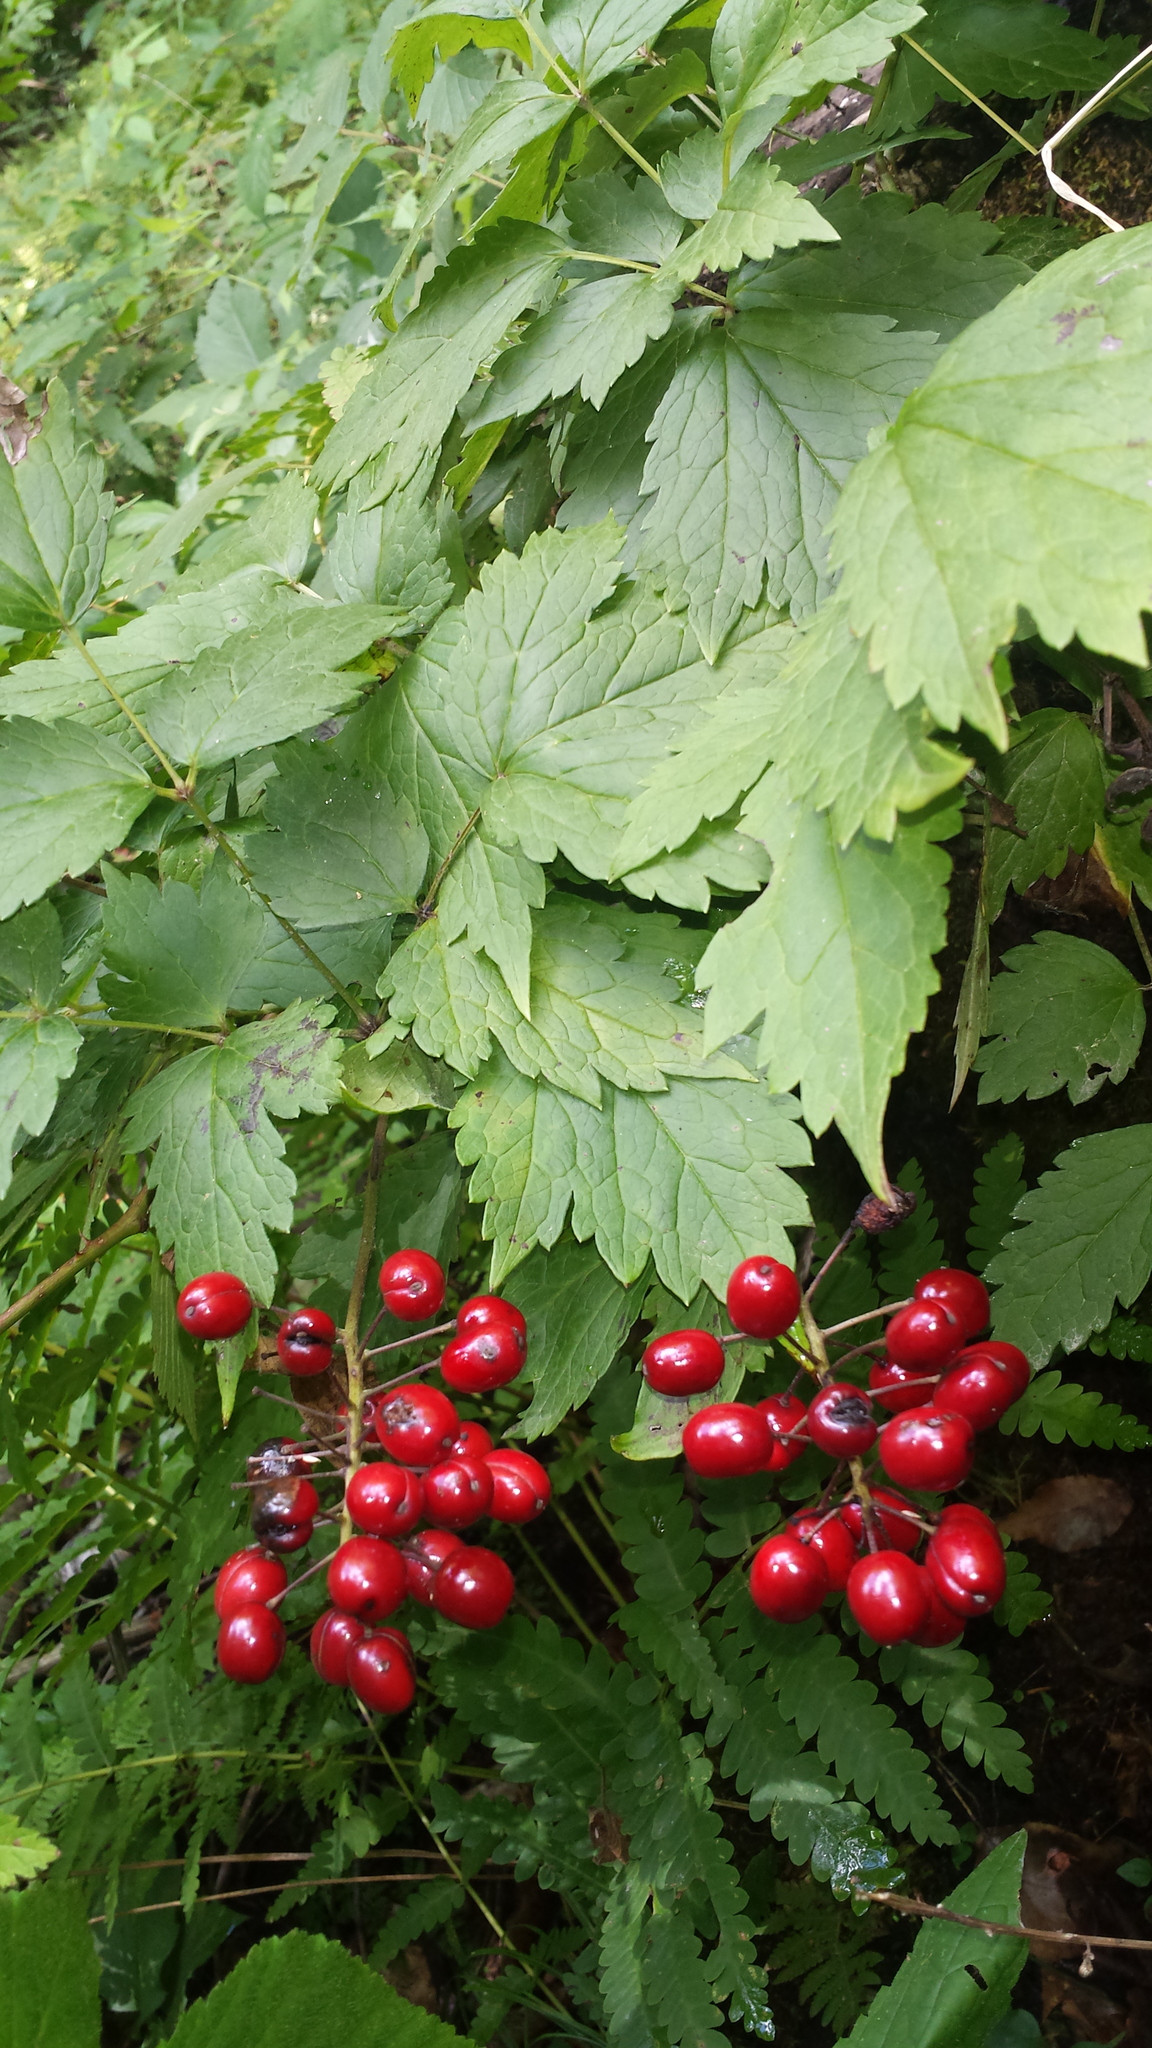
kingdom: Plantae
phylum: Tracheophyta
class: Magnoliopsida
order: Ranunculales
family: Ranunculaceae
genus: Actaea
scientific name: Actaea rubra
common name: Red baneberry
